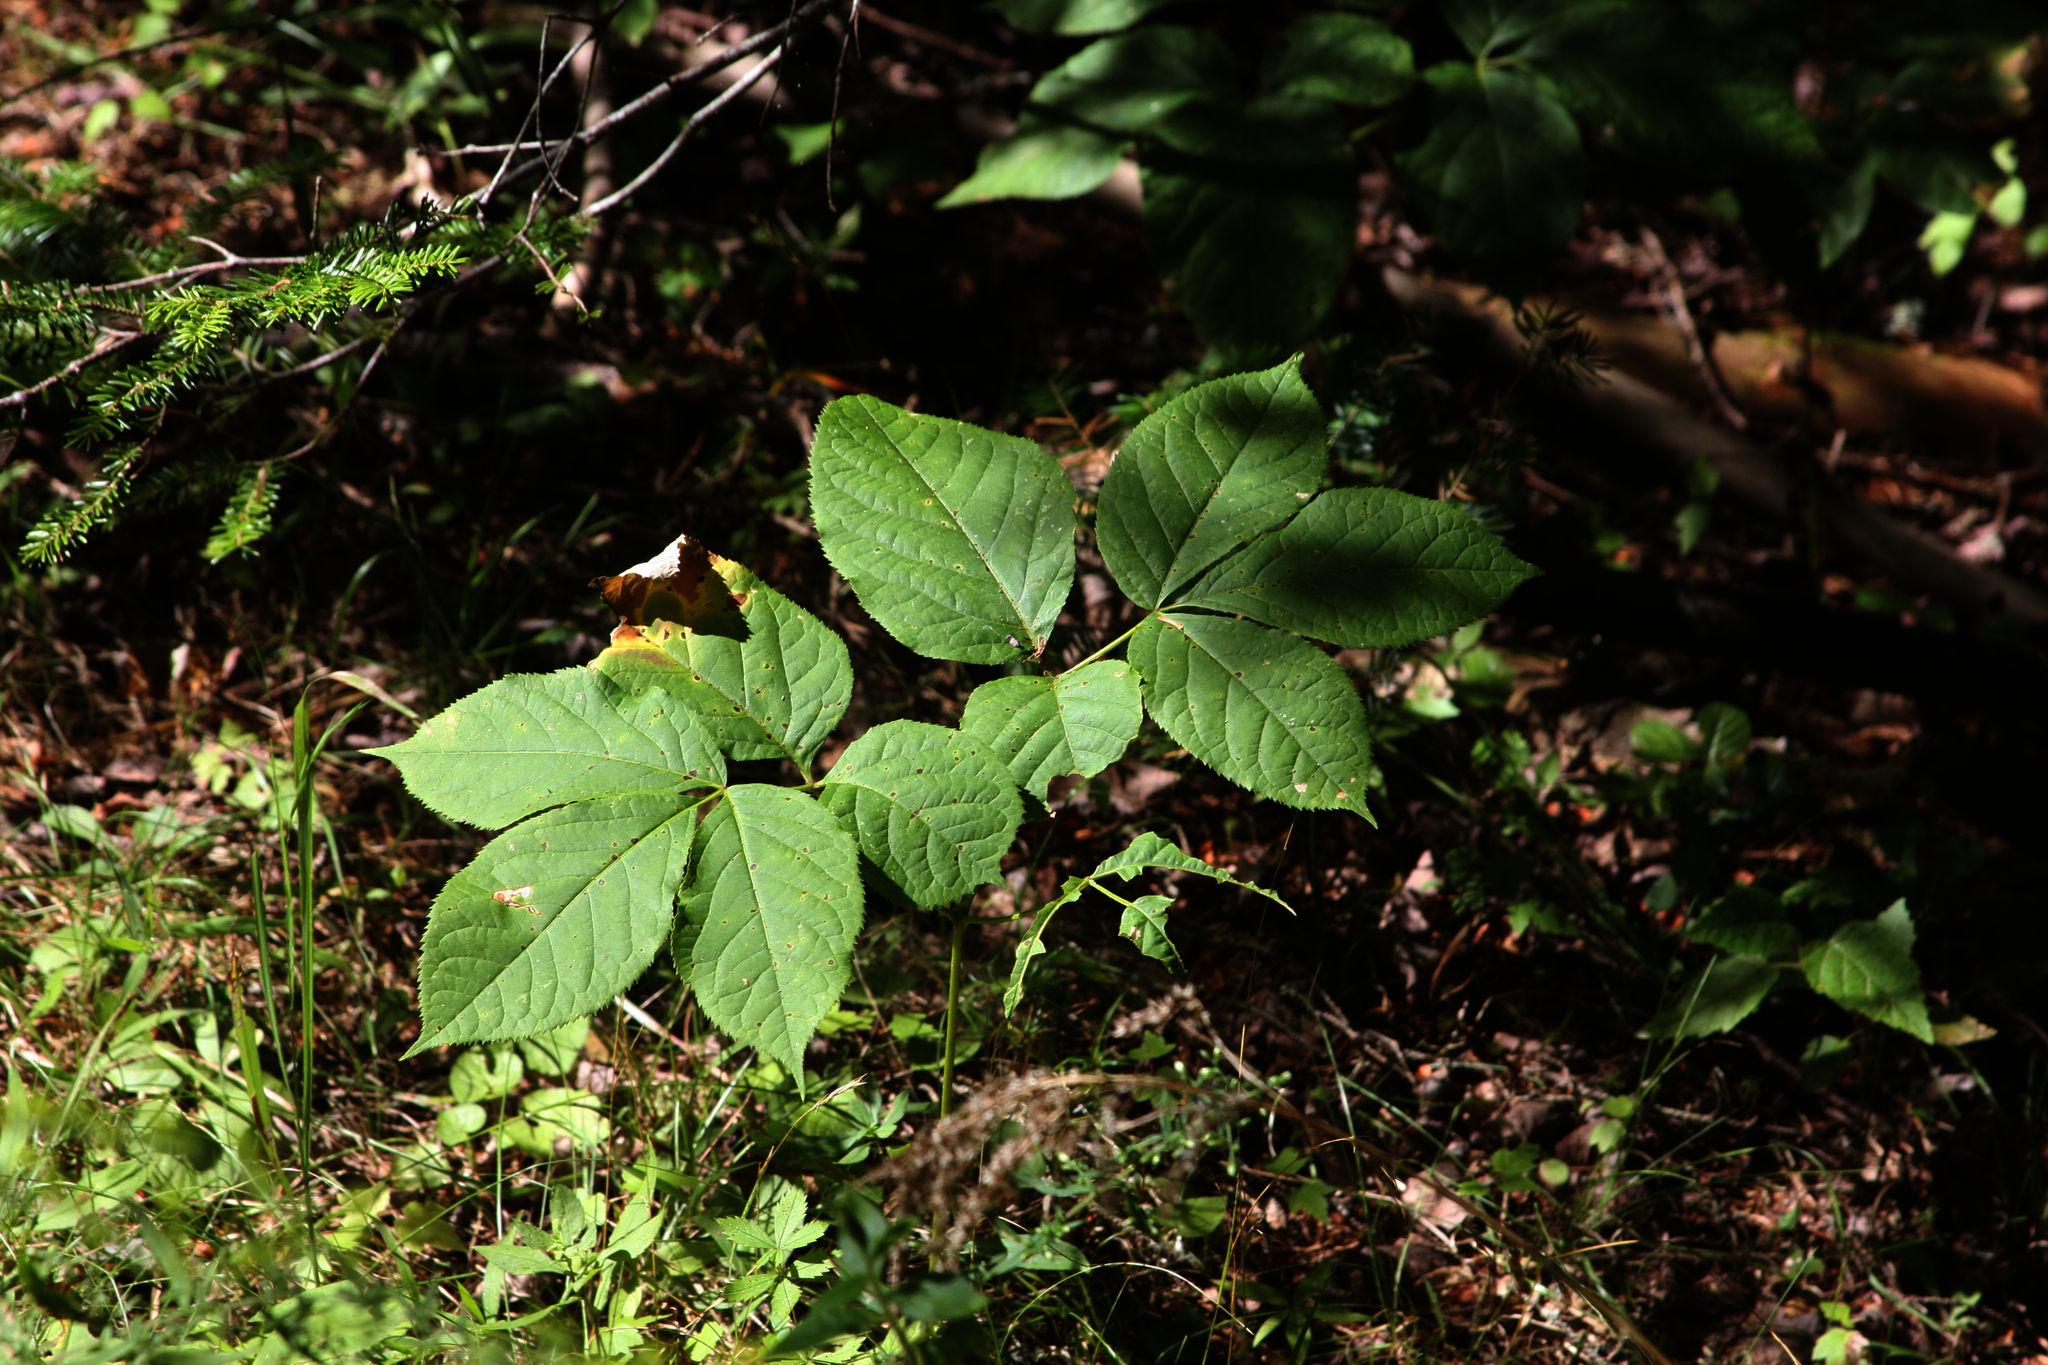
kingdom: Plantae
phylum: Tracheophyta
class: Magnoliopsida
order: Apiales
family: Araliaceae
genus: Aralia
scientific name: Aralia nudicaulis
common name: Wild sarsaparilla
